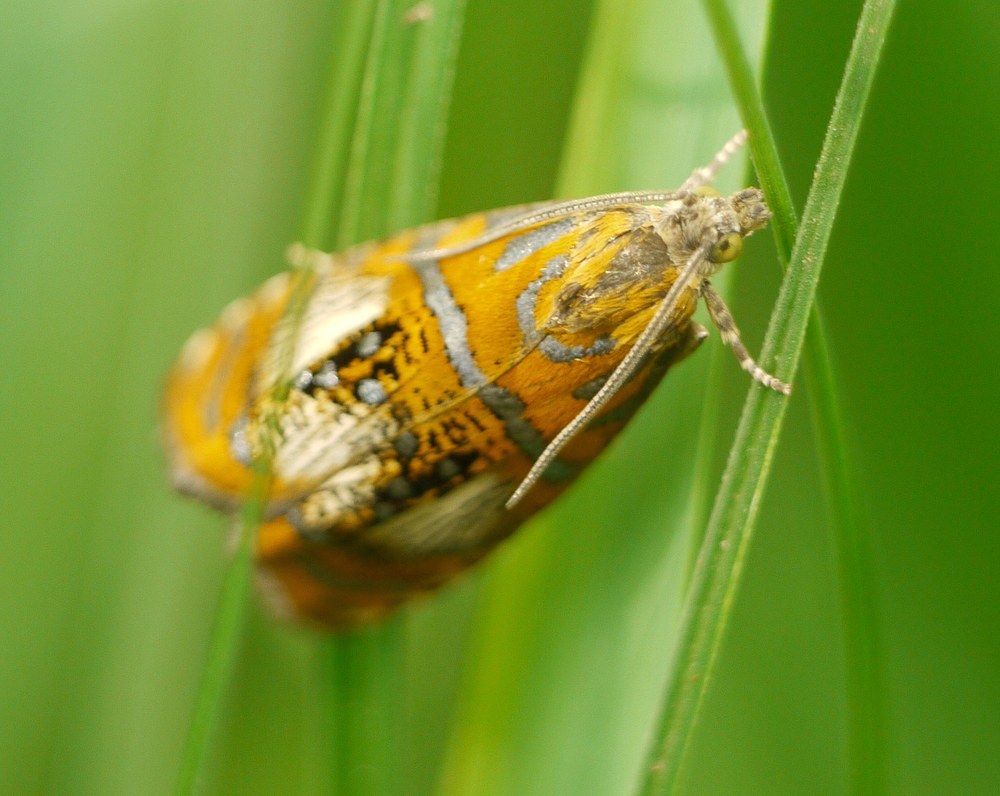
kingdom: Animalia
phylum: Arthropoda
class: Insecta
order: Lepidoptera
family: Tortricidae
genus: Olethreutes
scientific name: Olethreutes arcuella
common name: Arched marble
